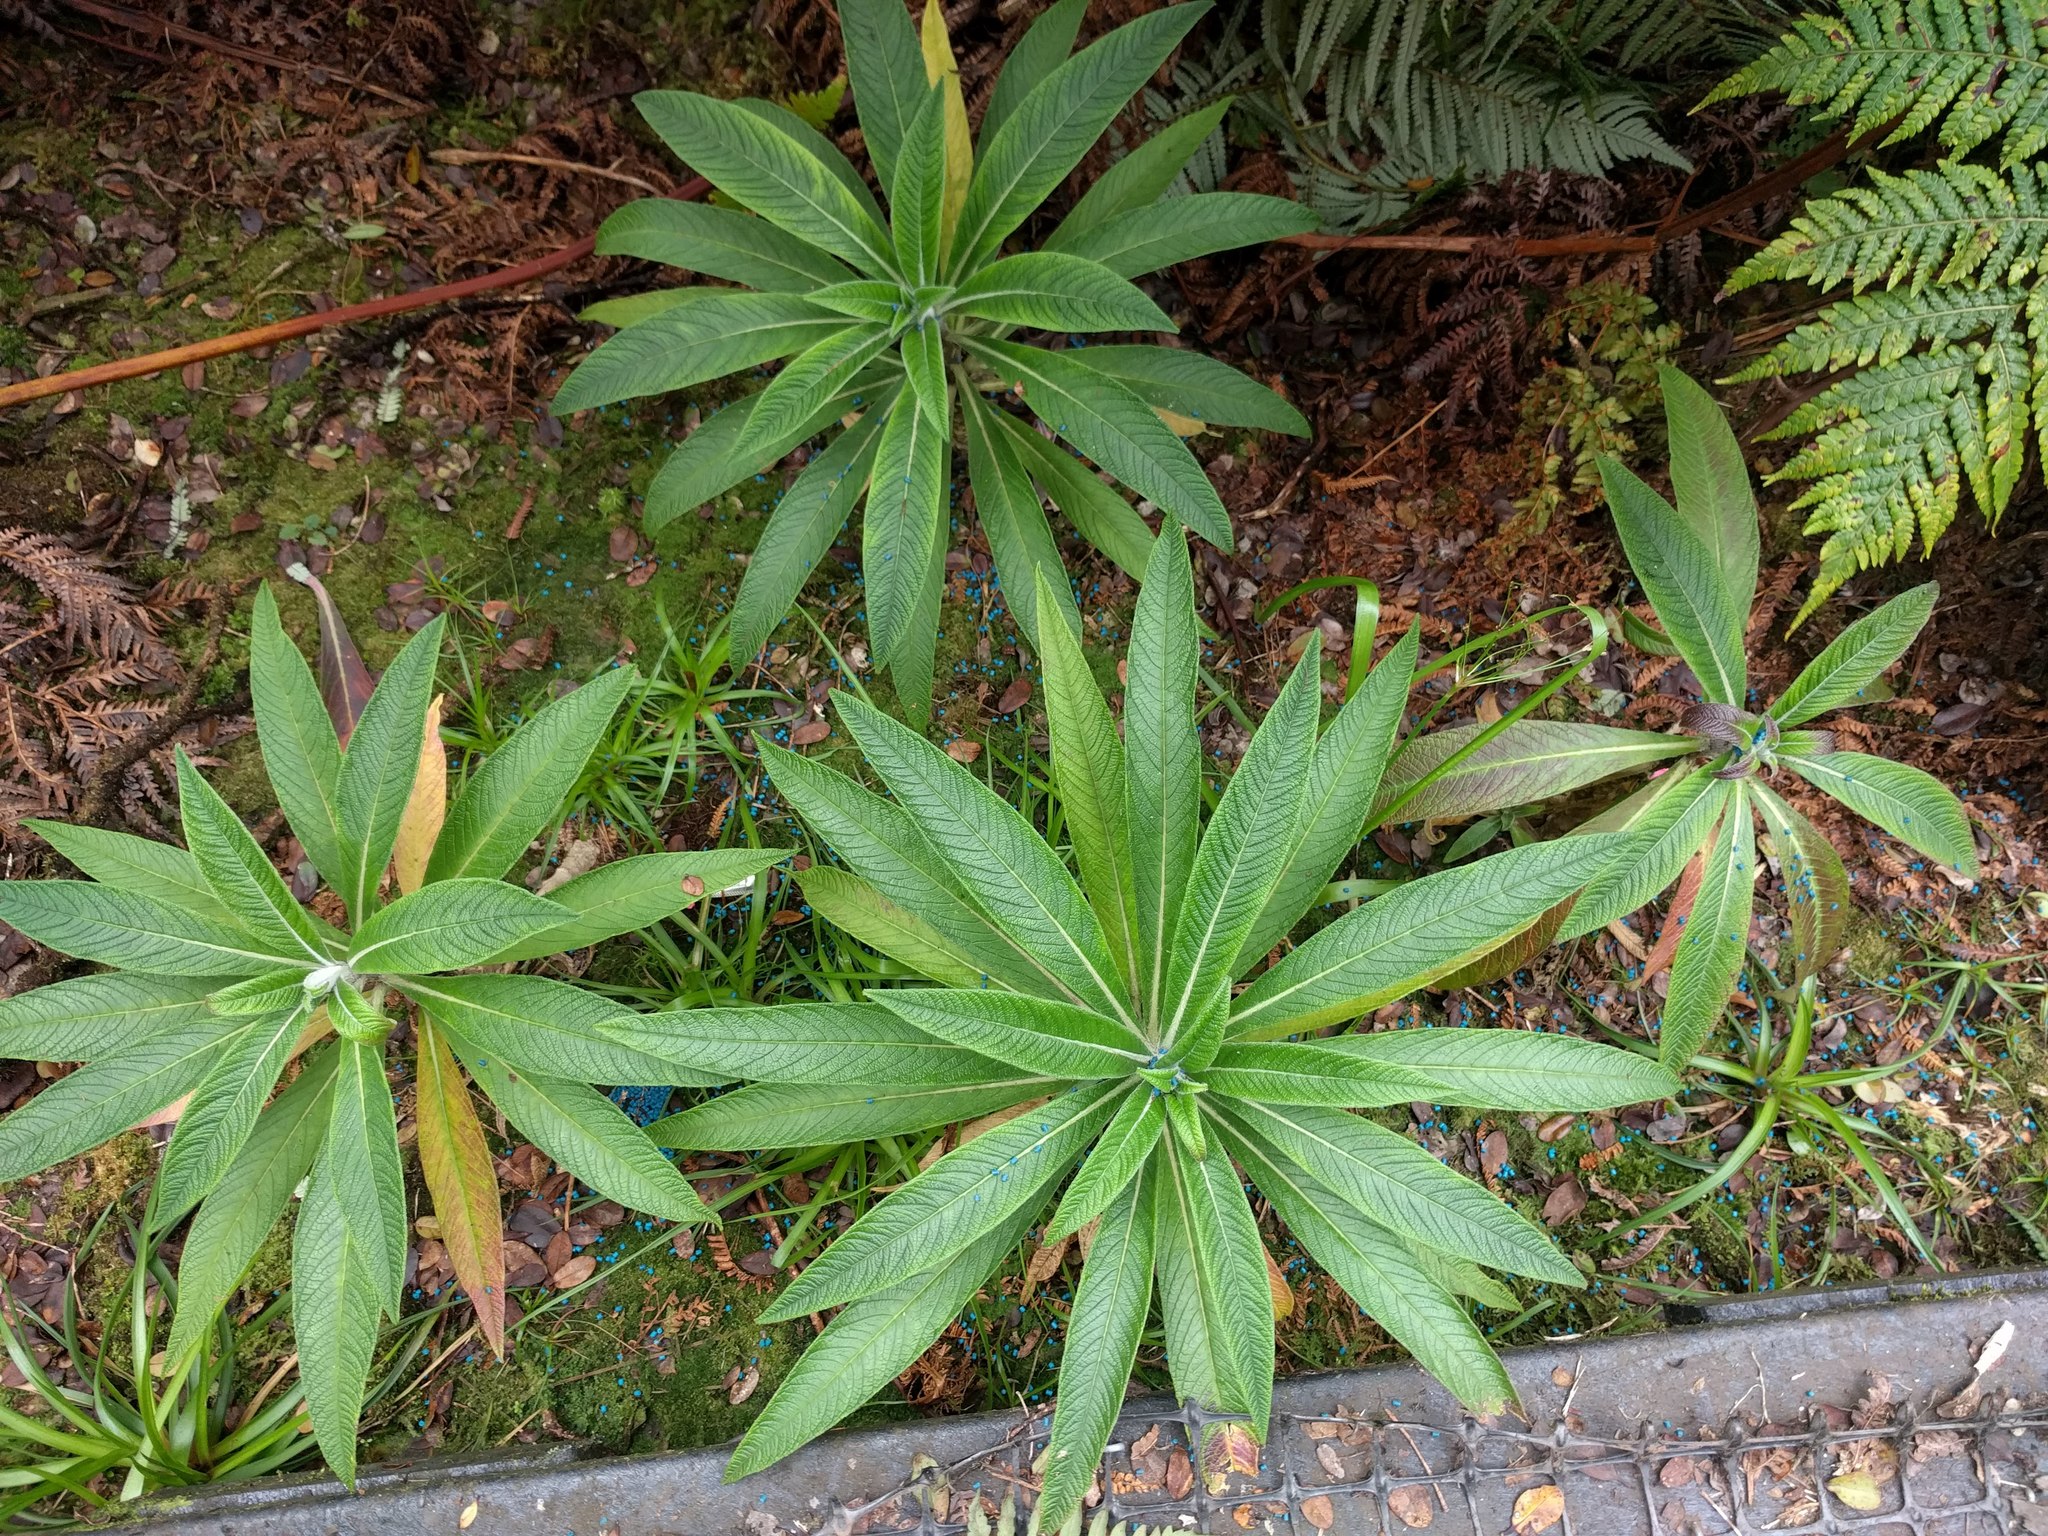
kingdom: Plantae
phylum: Tracheophyta
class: Magnoliopsida
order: Asterales
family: Campanulaceae
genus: Lobelia
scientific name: Lobelia oahuensis
